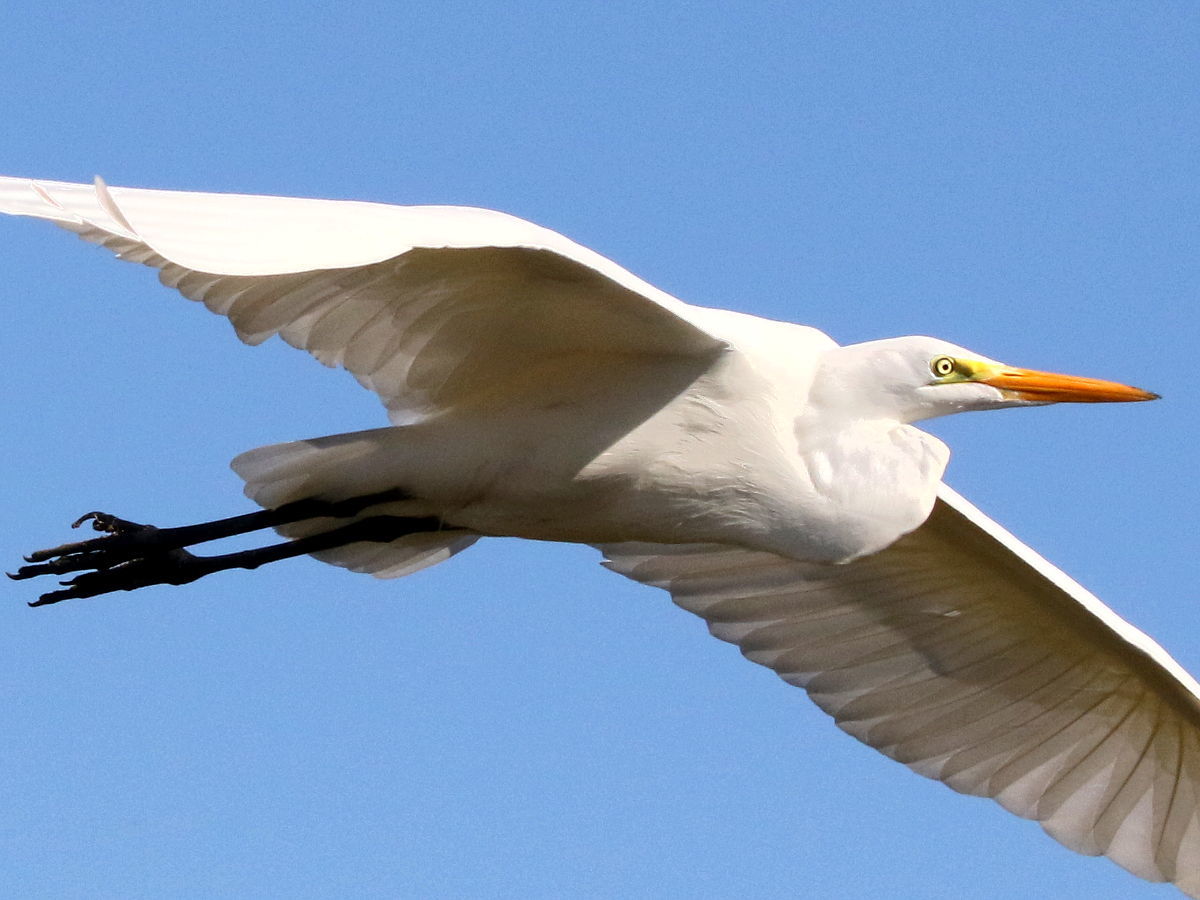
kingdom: Animalia
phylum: Chordata
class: Aves
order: Pelecaniformes
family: Ardeidae
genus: Ardea
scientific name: Ardea alba
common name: Great egret
